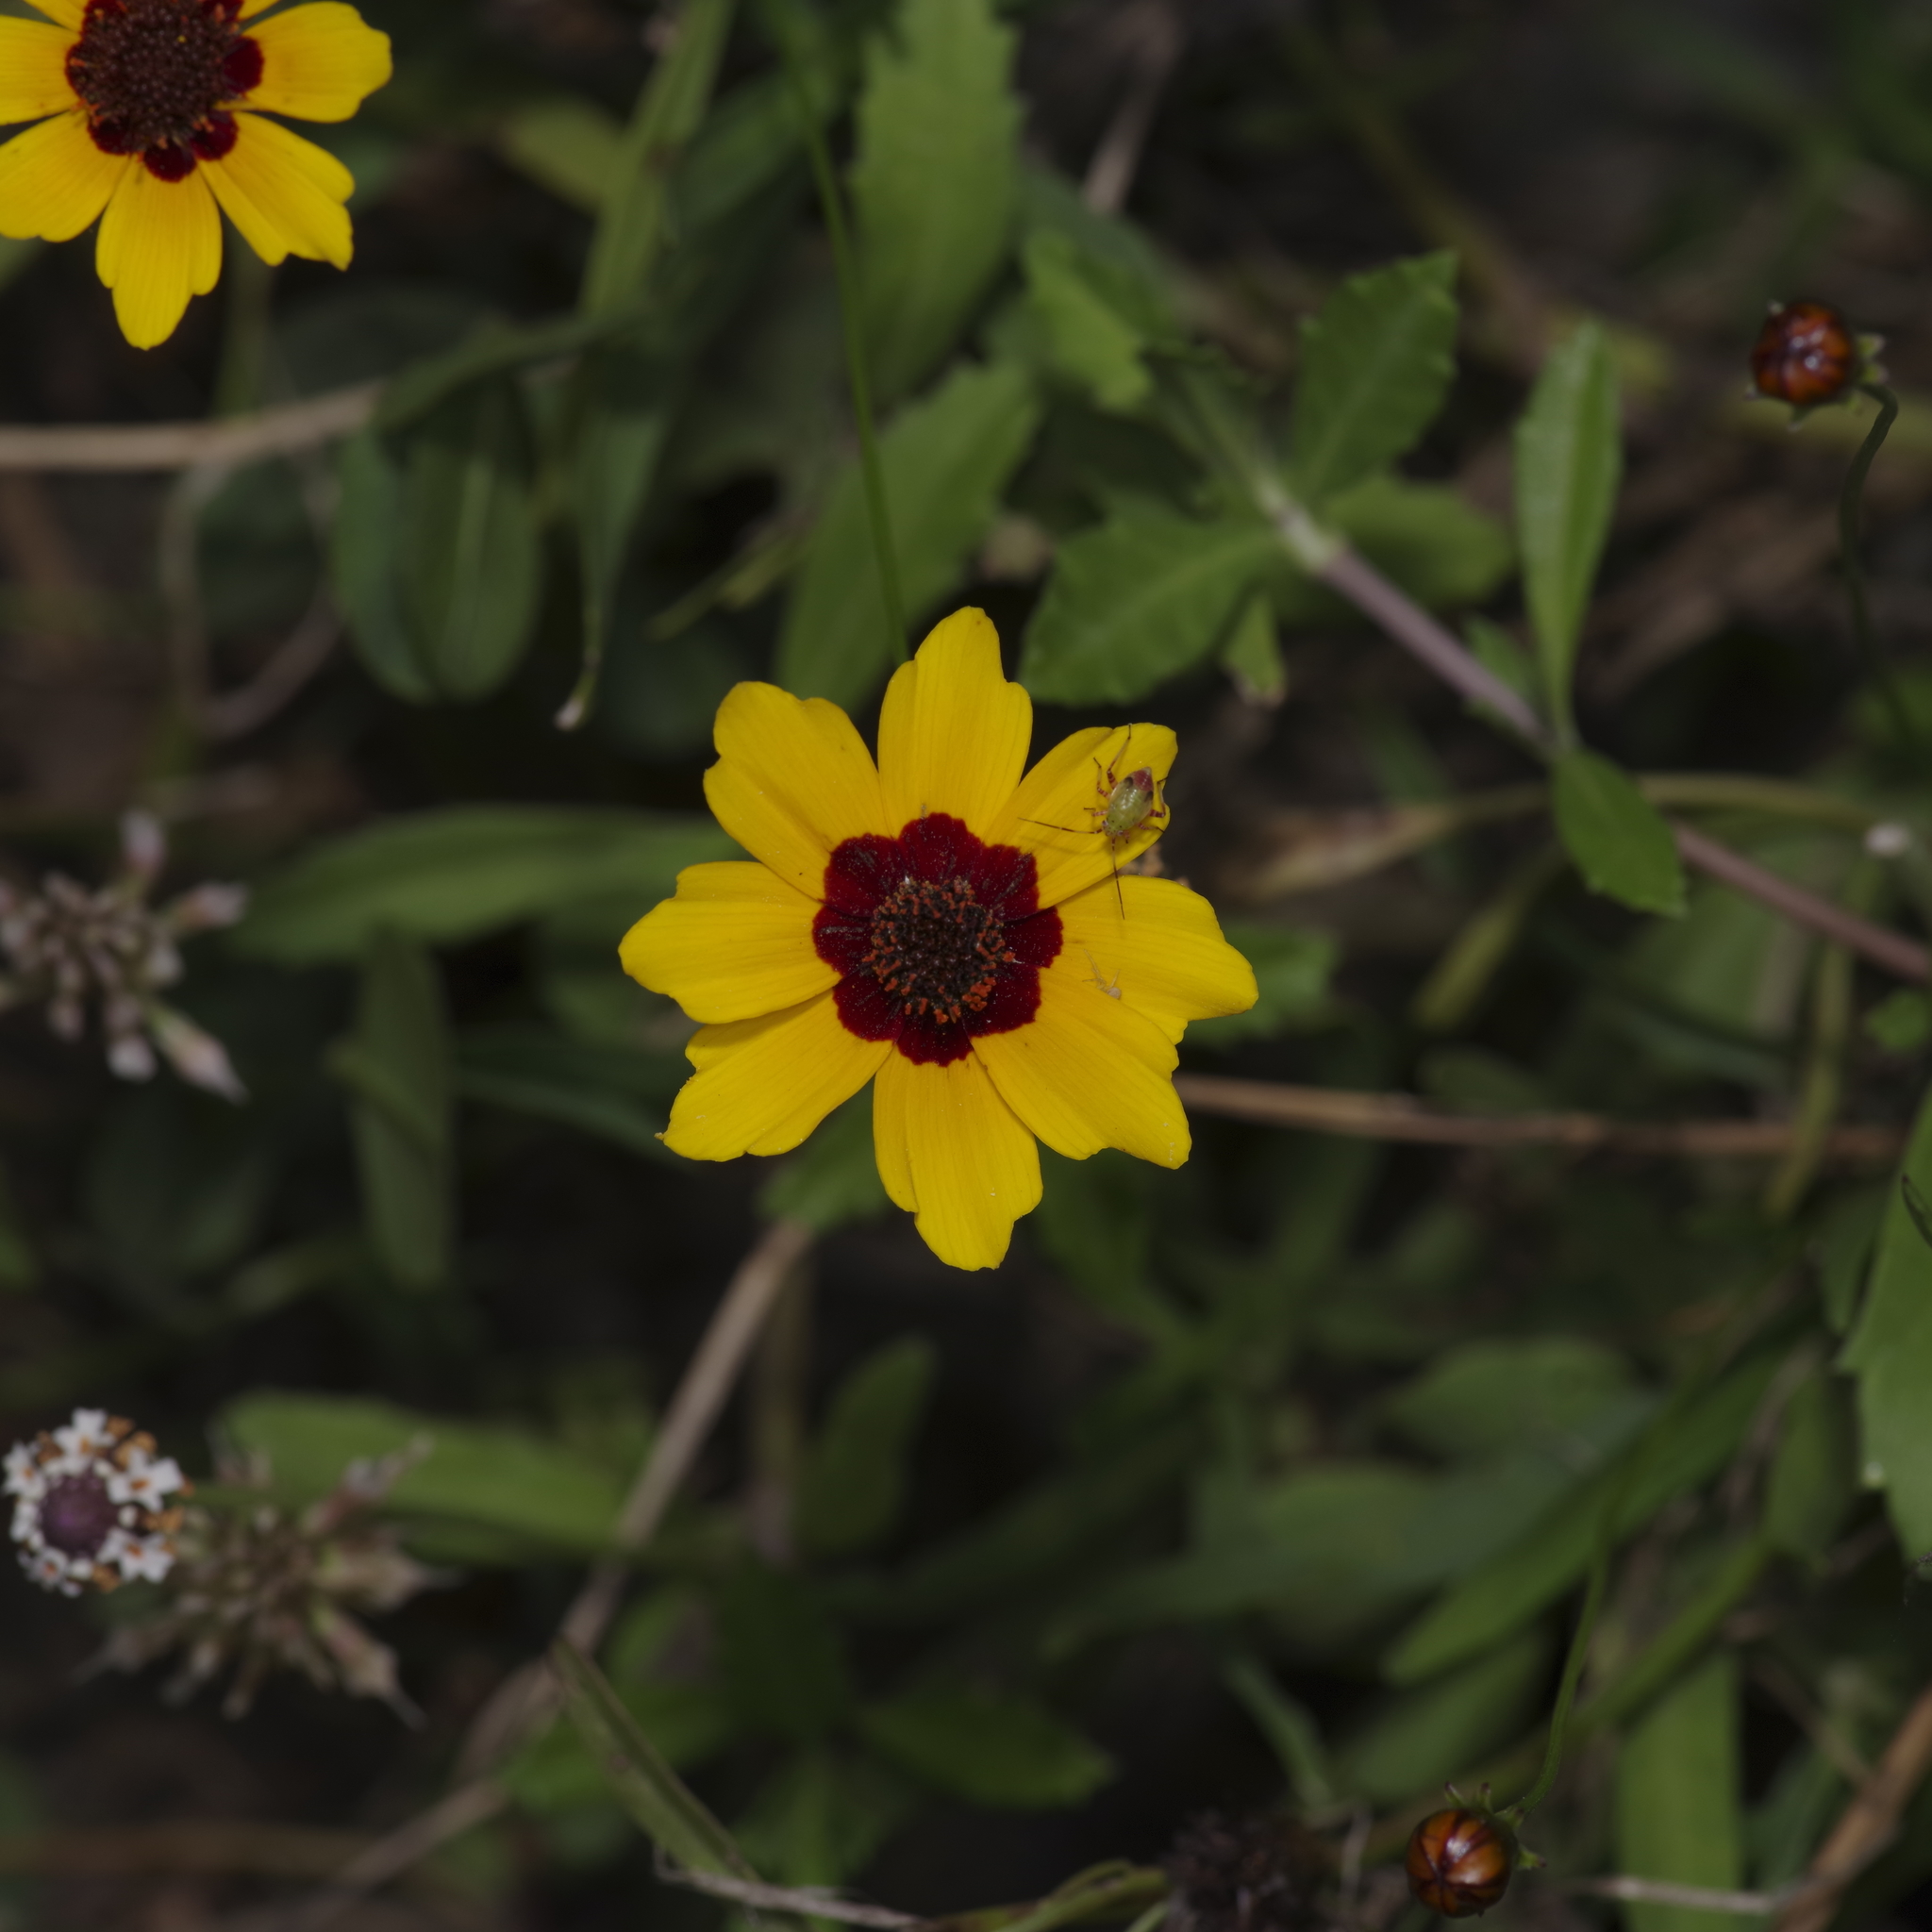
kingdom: Plantae
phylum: Tracheophyta
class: Magnoliopsida
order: Asterales
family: Asteraceae
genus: Coreopsis
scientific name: Coreopsis tinctoria
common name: Garden tickseed
